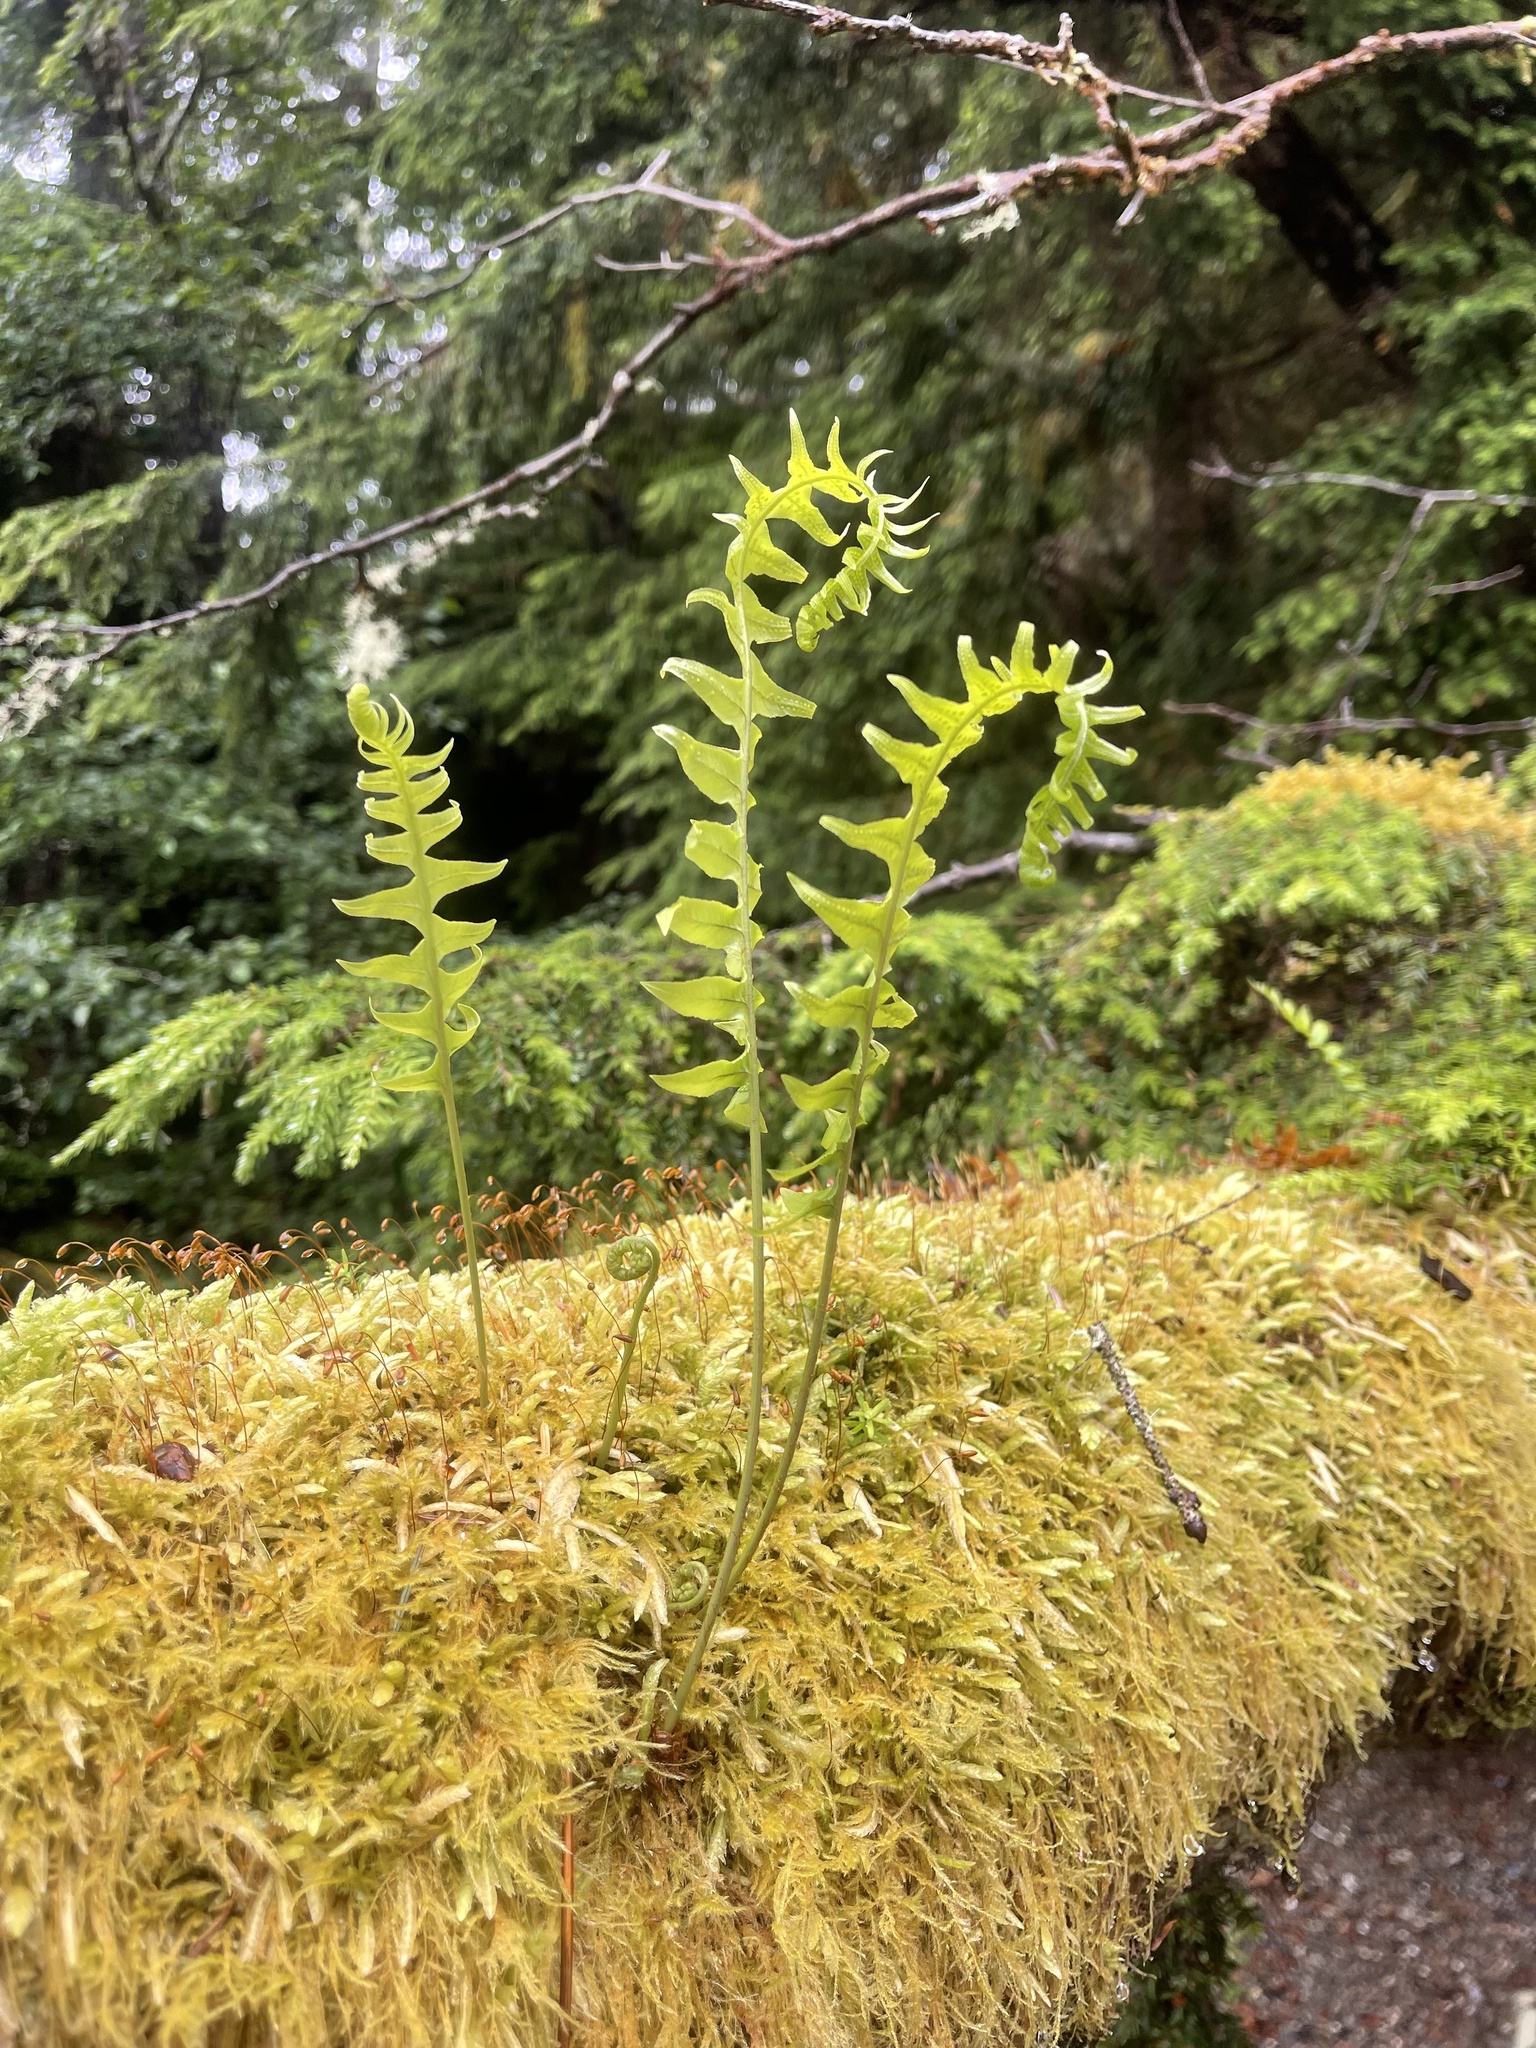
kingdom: Plantae
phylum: Tracheophyta
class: Polypodiopsida
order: Polypodiales
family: Polypodiaceae
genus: Polypodium
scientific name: Polypodium glycyrrhiza
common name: Licorice fern
